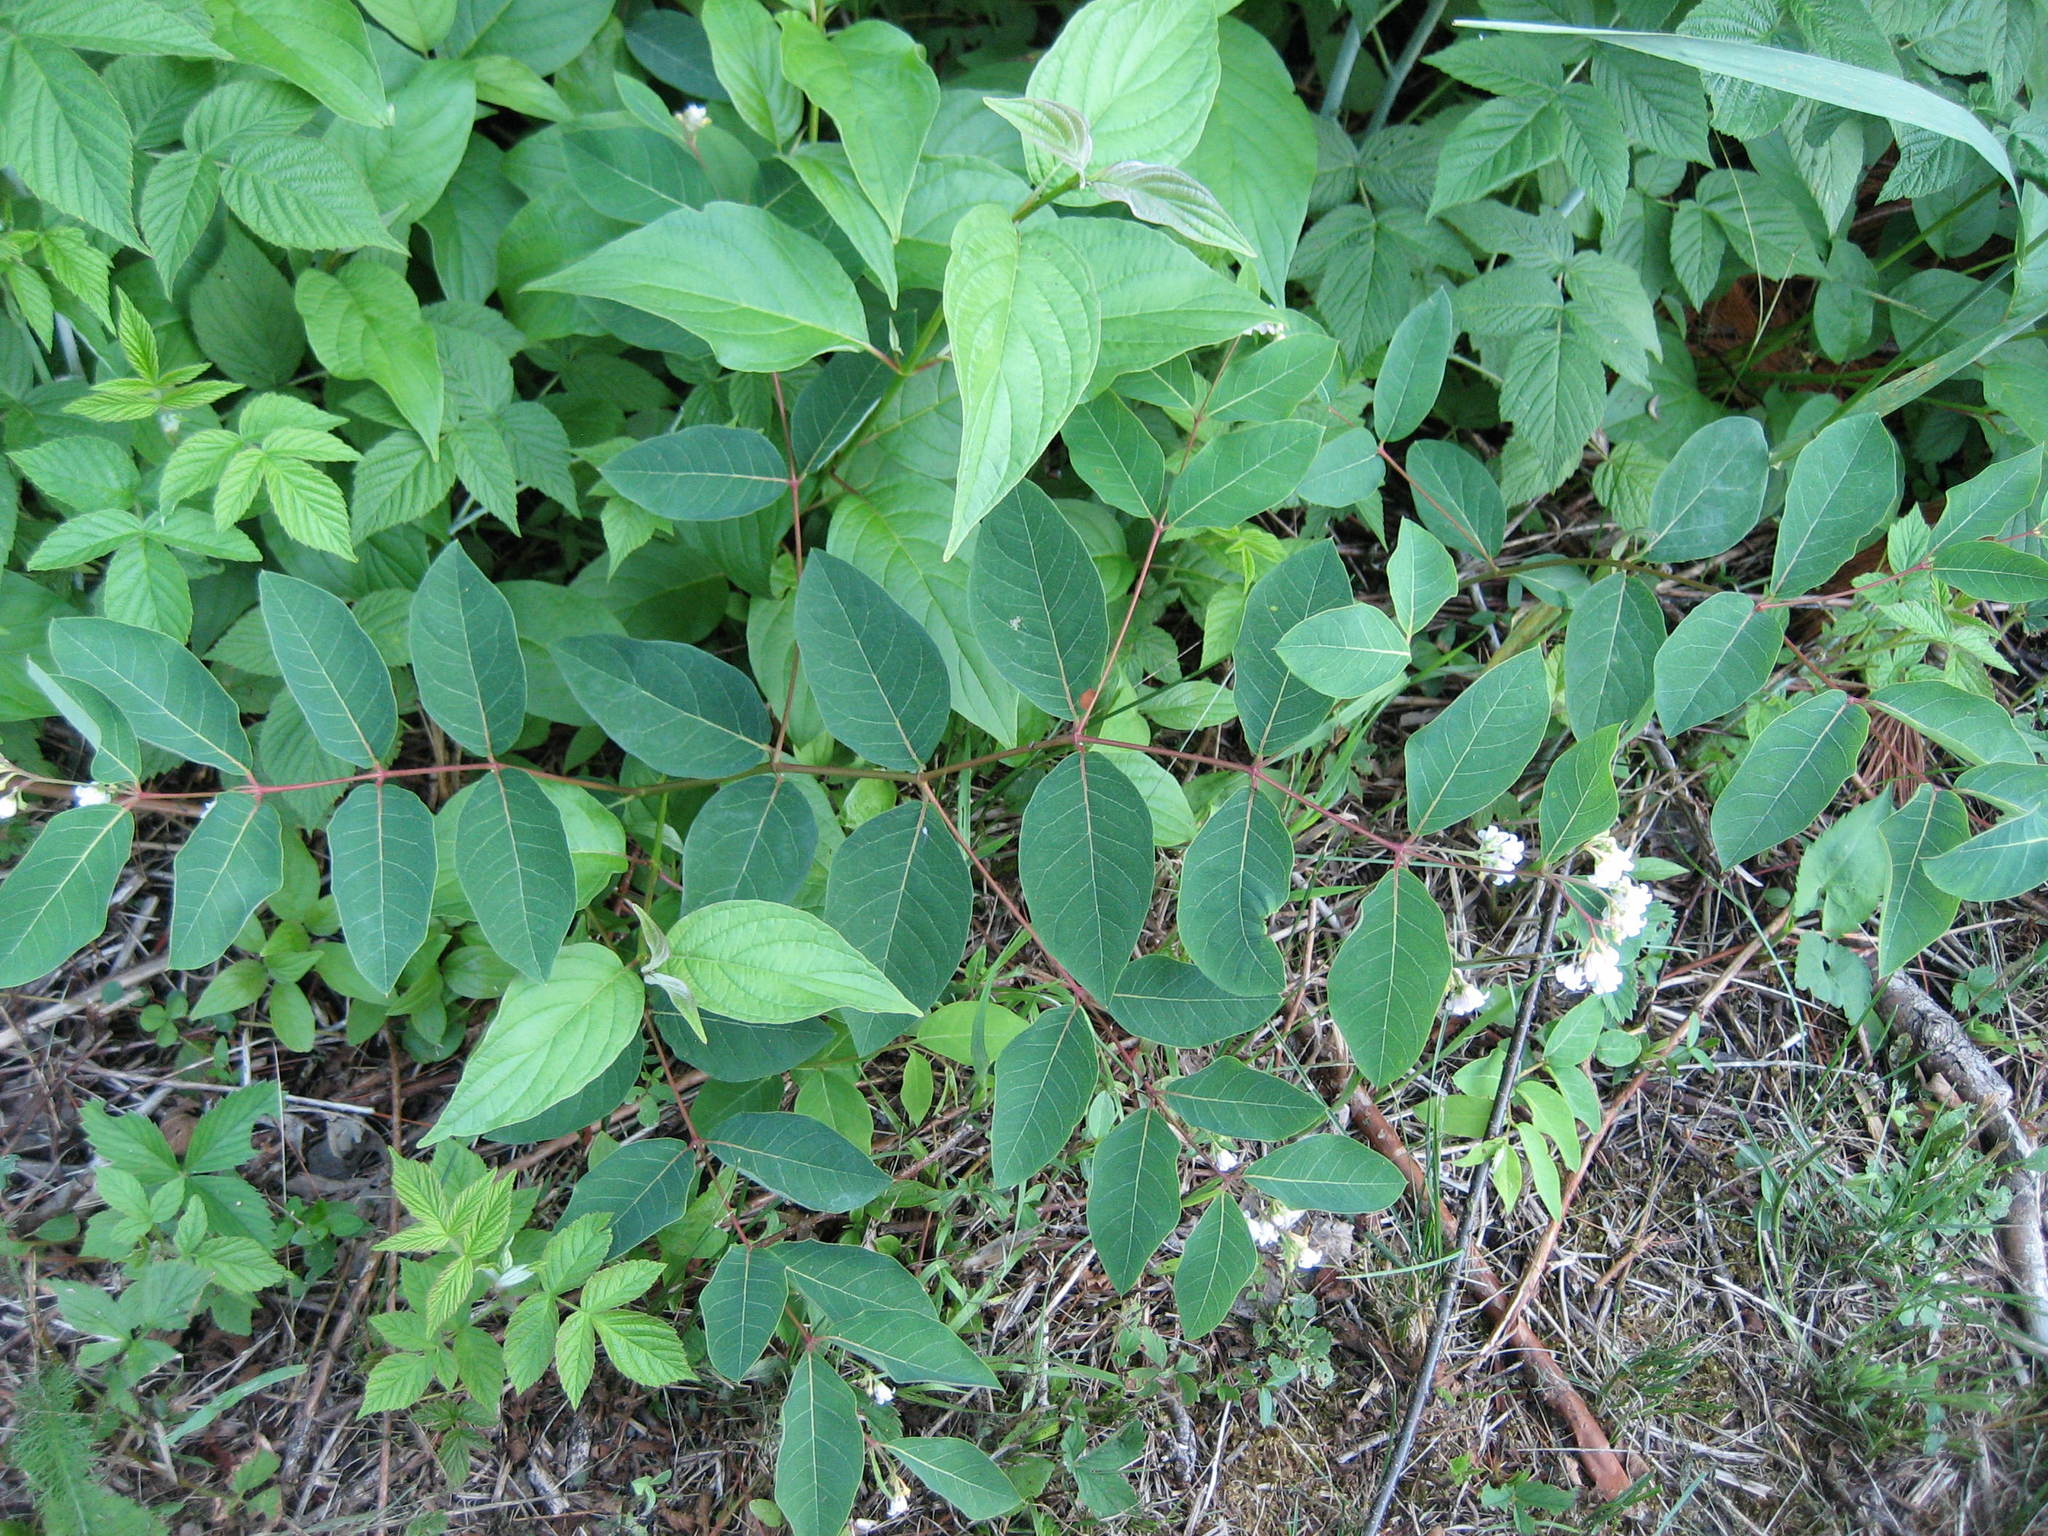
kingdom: Plantae
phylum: Tracheophyta
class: Magnoliopsida
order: Gentianales
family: Apocynaceae
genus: Apocynum
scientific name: Apocynum androsaemifolium
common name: Spreading dogbane
